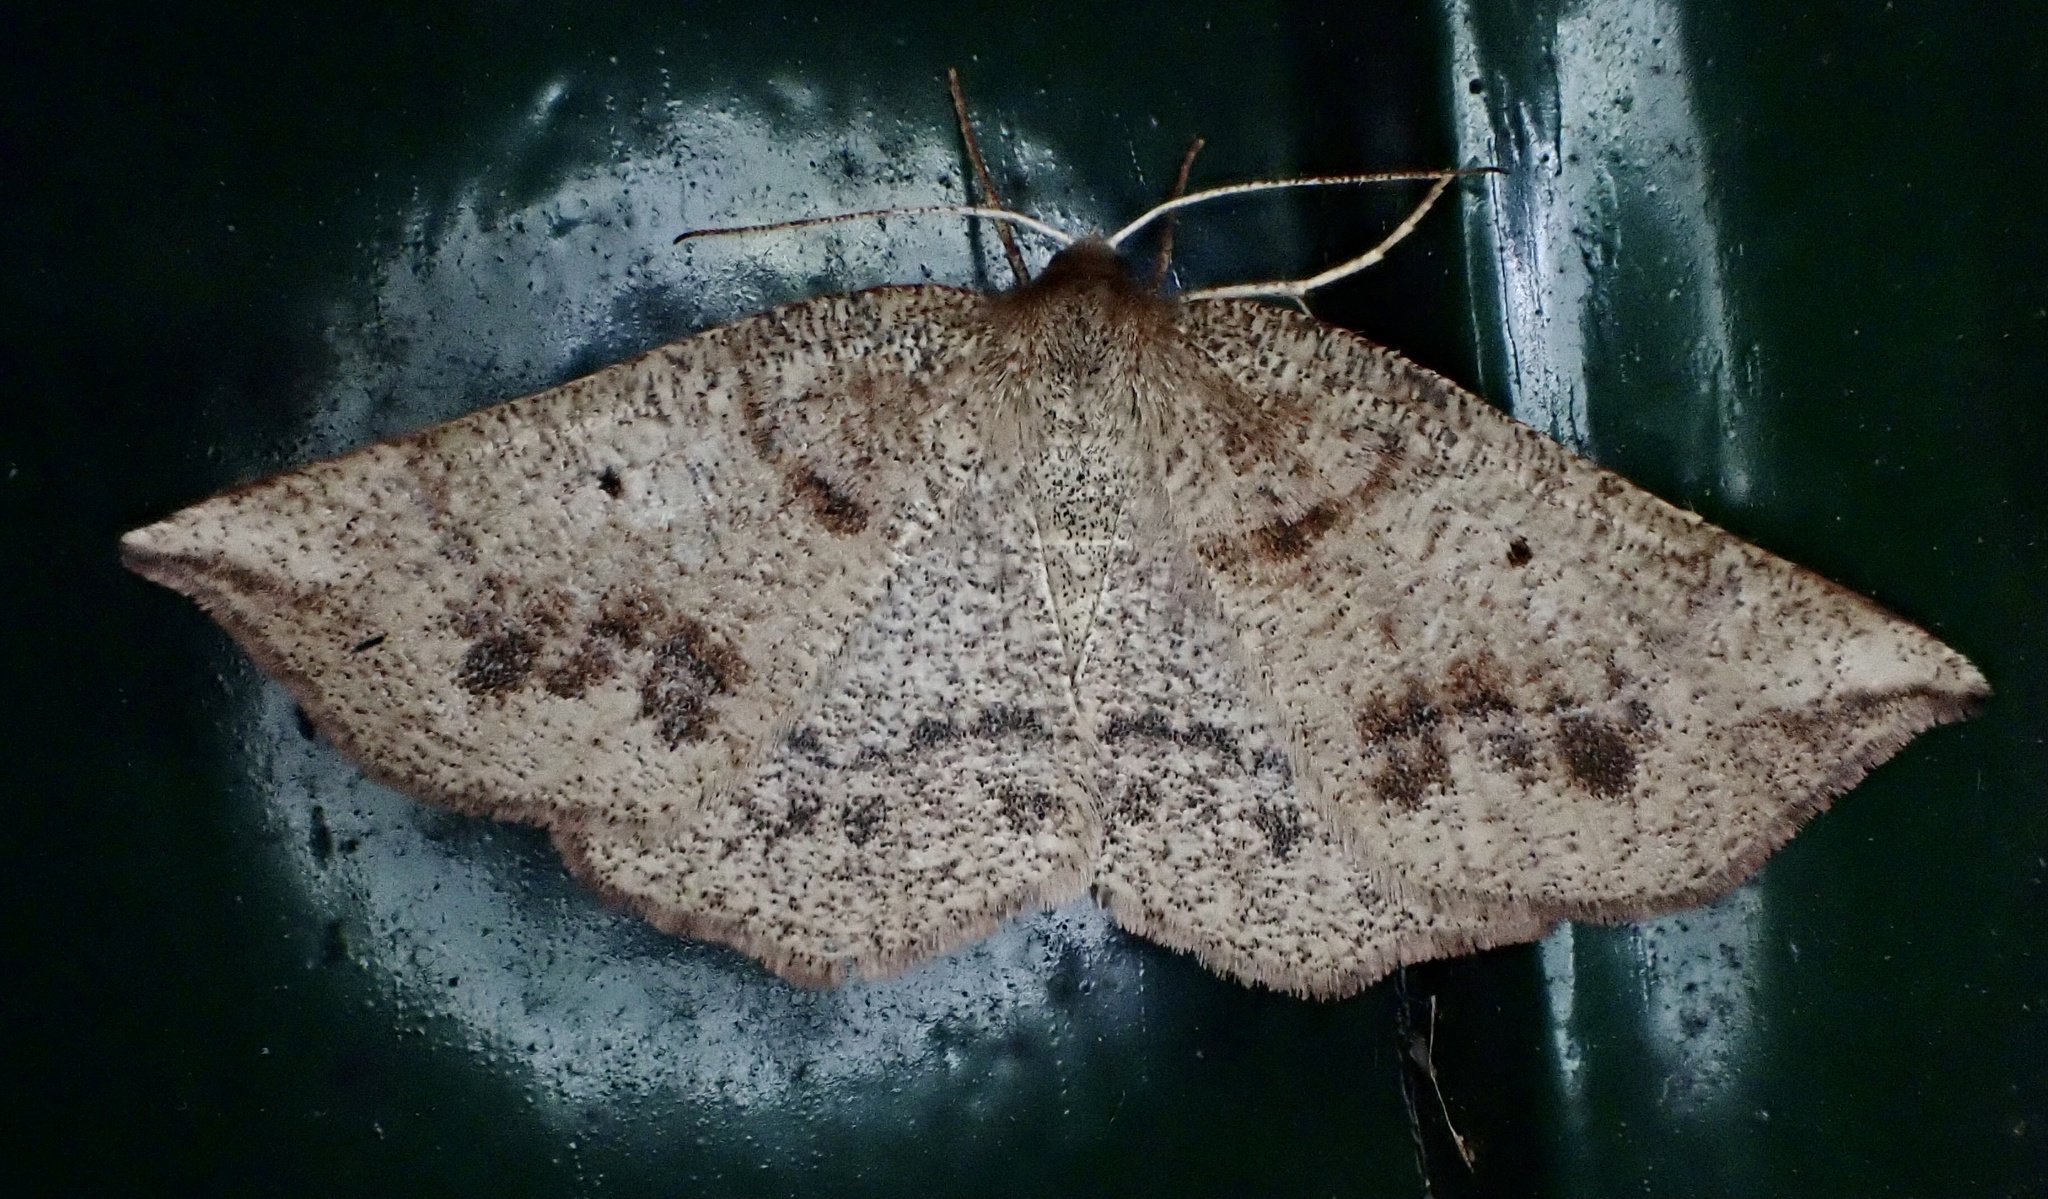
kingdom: Animalia
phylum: Arthropoda
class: Insecta
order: Lepidoptera
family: Geometridae
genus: Metarranthis
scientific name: Metarranthis duaria
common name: Ruddy metarranthis moth
